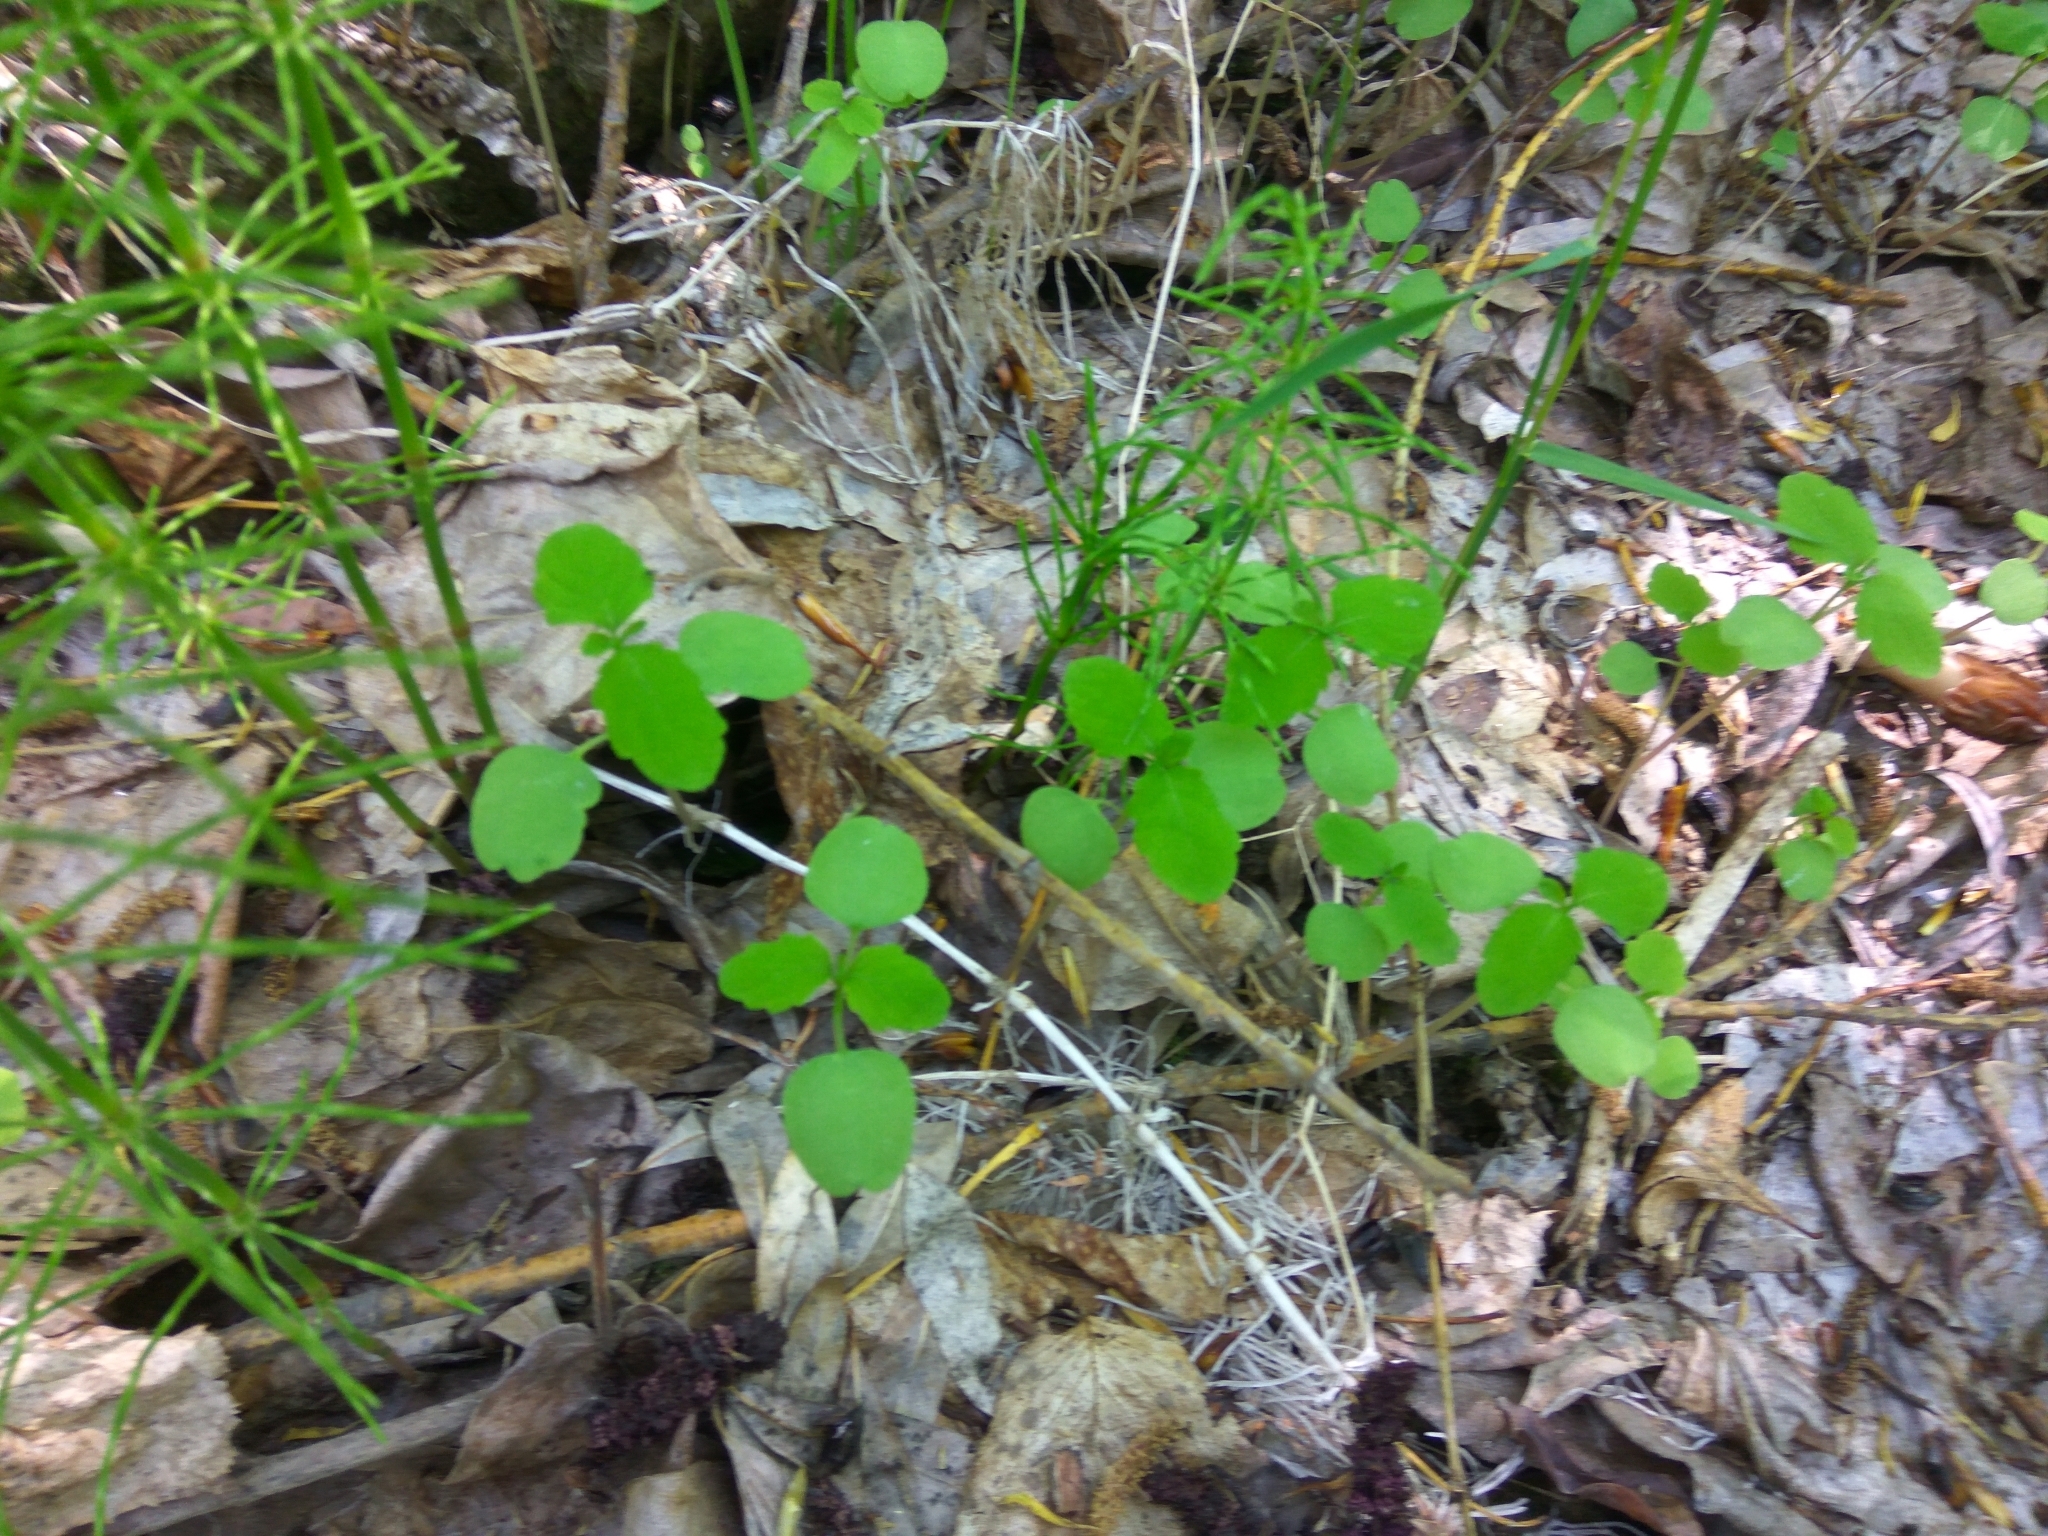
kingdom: Plantae
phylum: Tracheophyta
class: Magnoliopsida
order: Ericales
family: Balsaminaceae
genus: Impatiens
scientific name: Impatiens noli-tangere
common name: Touch-me-not balsam
